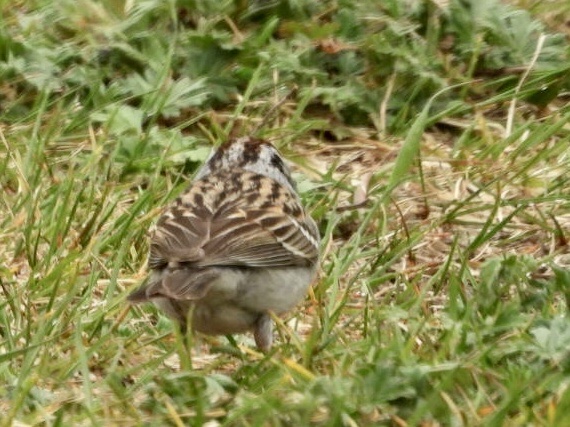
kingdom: Animalia
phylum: Chordata
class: Aves
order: Passeriformes
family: Passerellidae
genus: Spizella
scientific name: Spizella passerina
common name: Chipping sparrow
